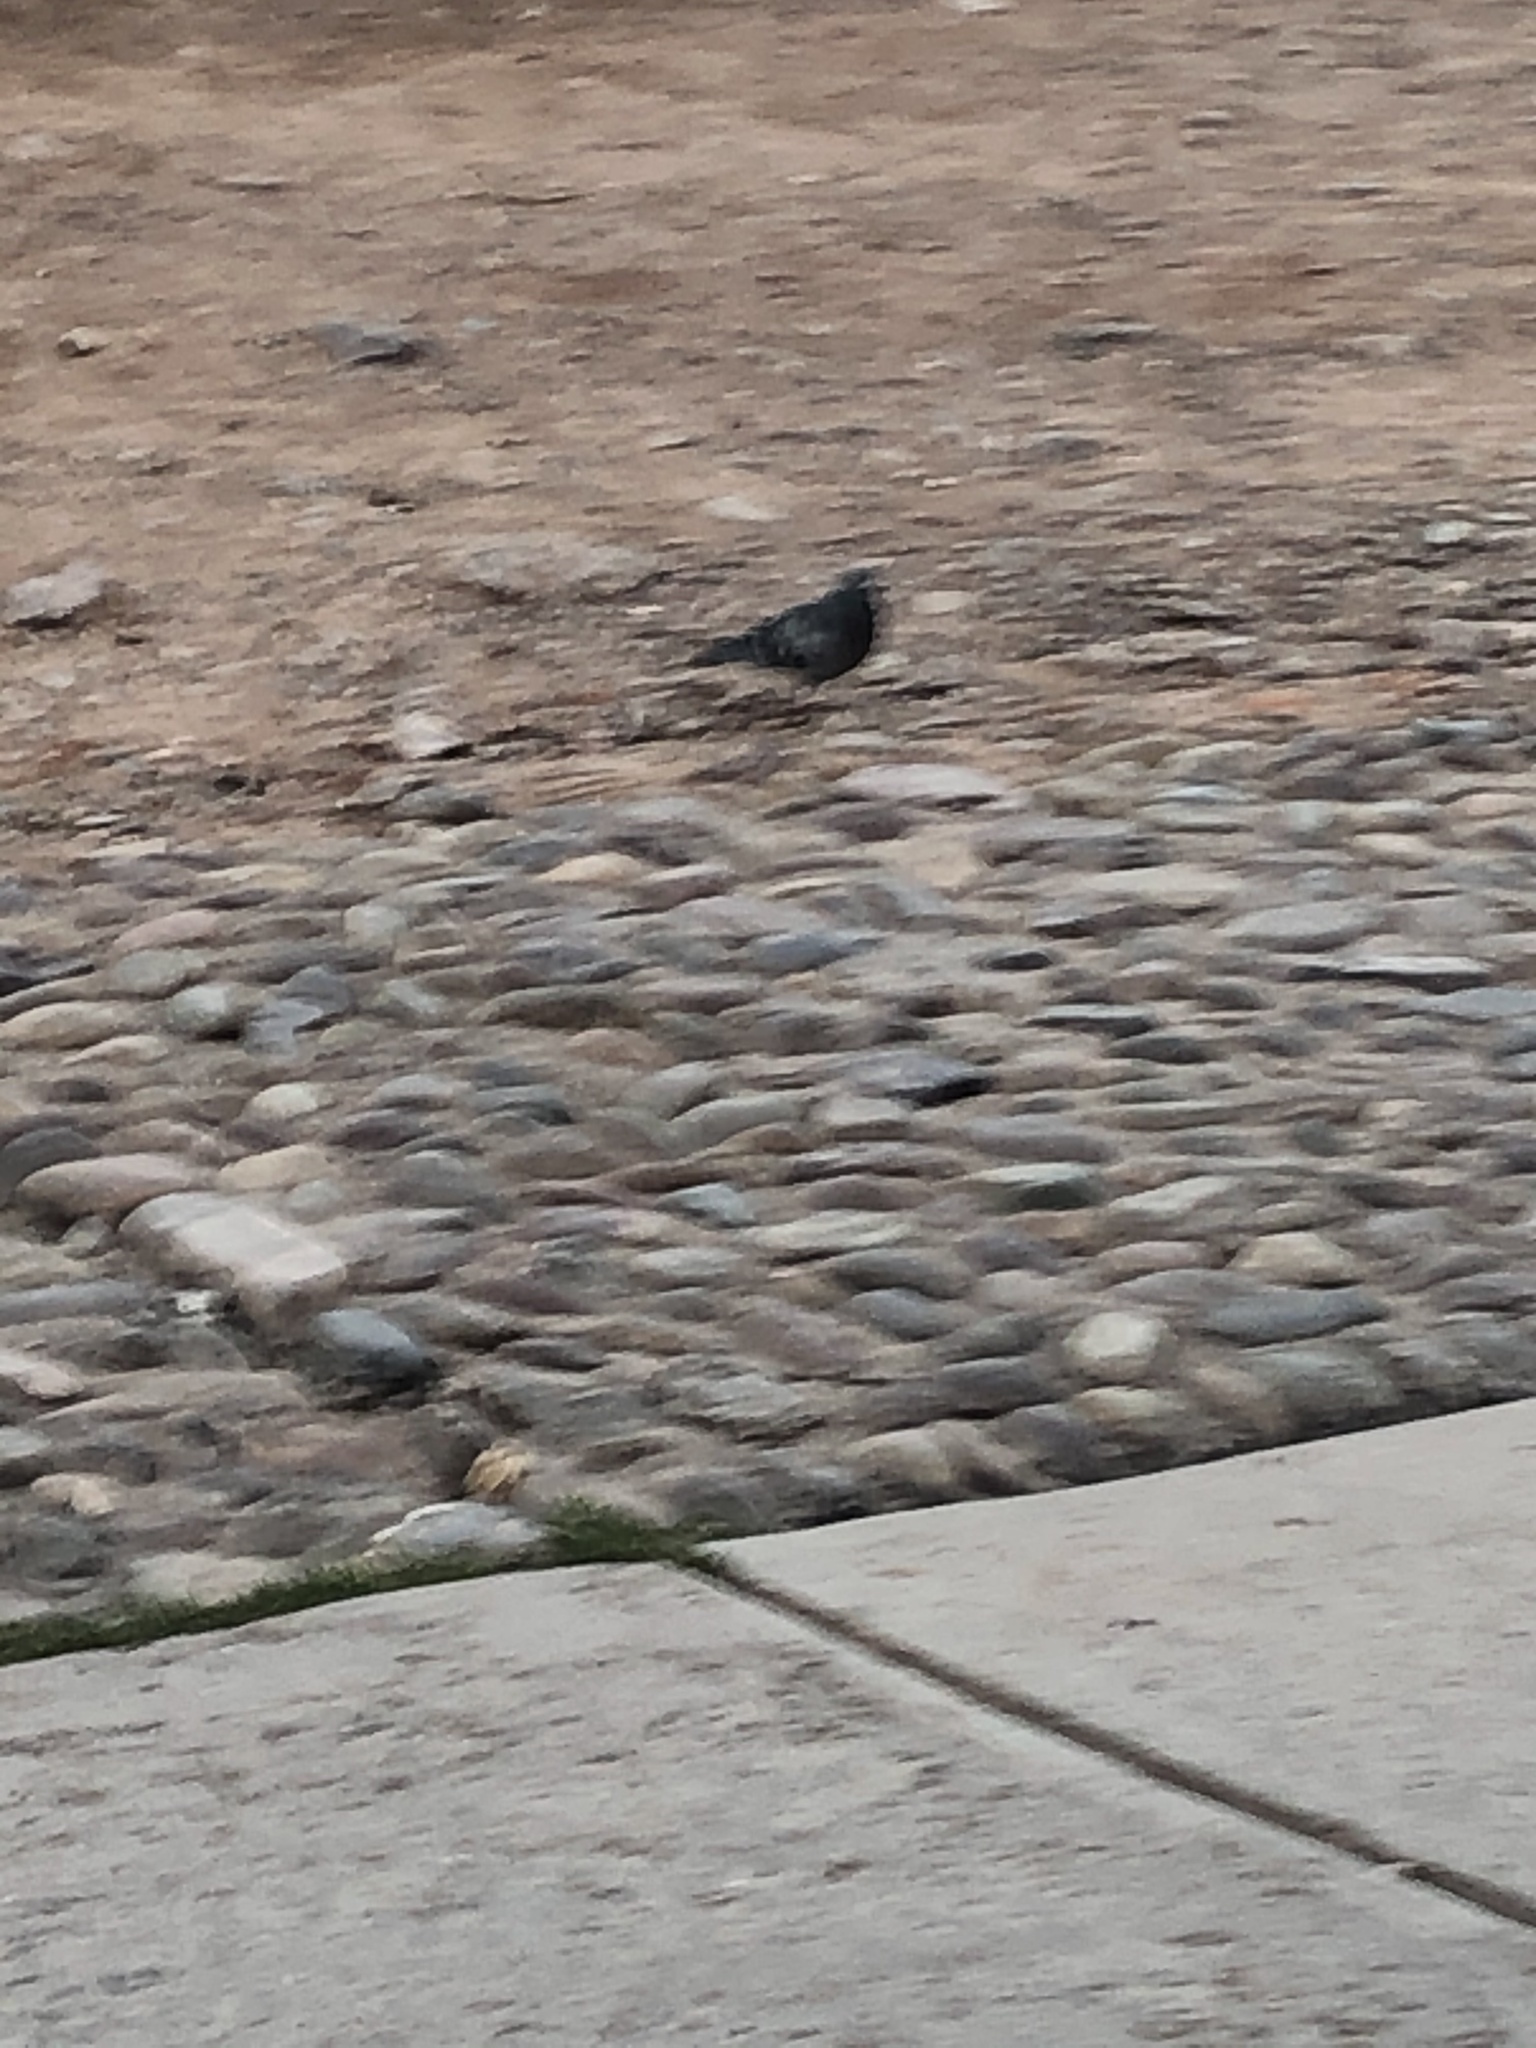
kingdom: Animalia
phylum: Chordata
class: Aves
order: Columbiformes
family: Columbidae
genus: Columba
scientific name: Columba livia
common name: Rock pigeon
